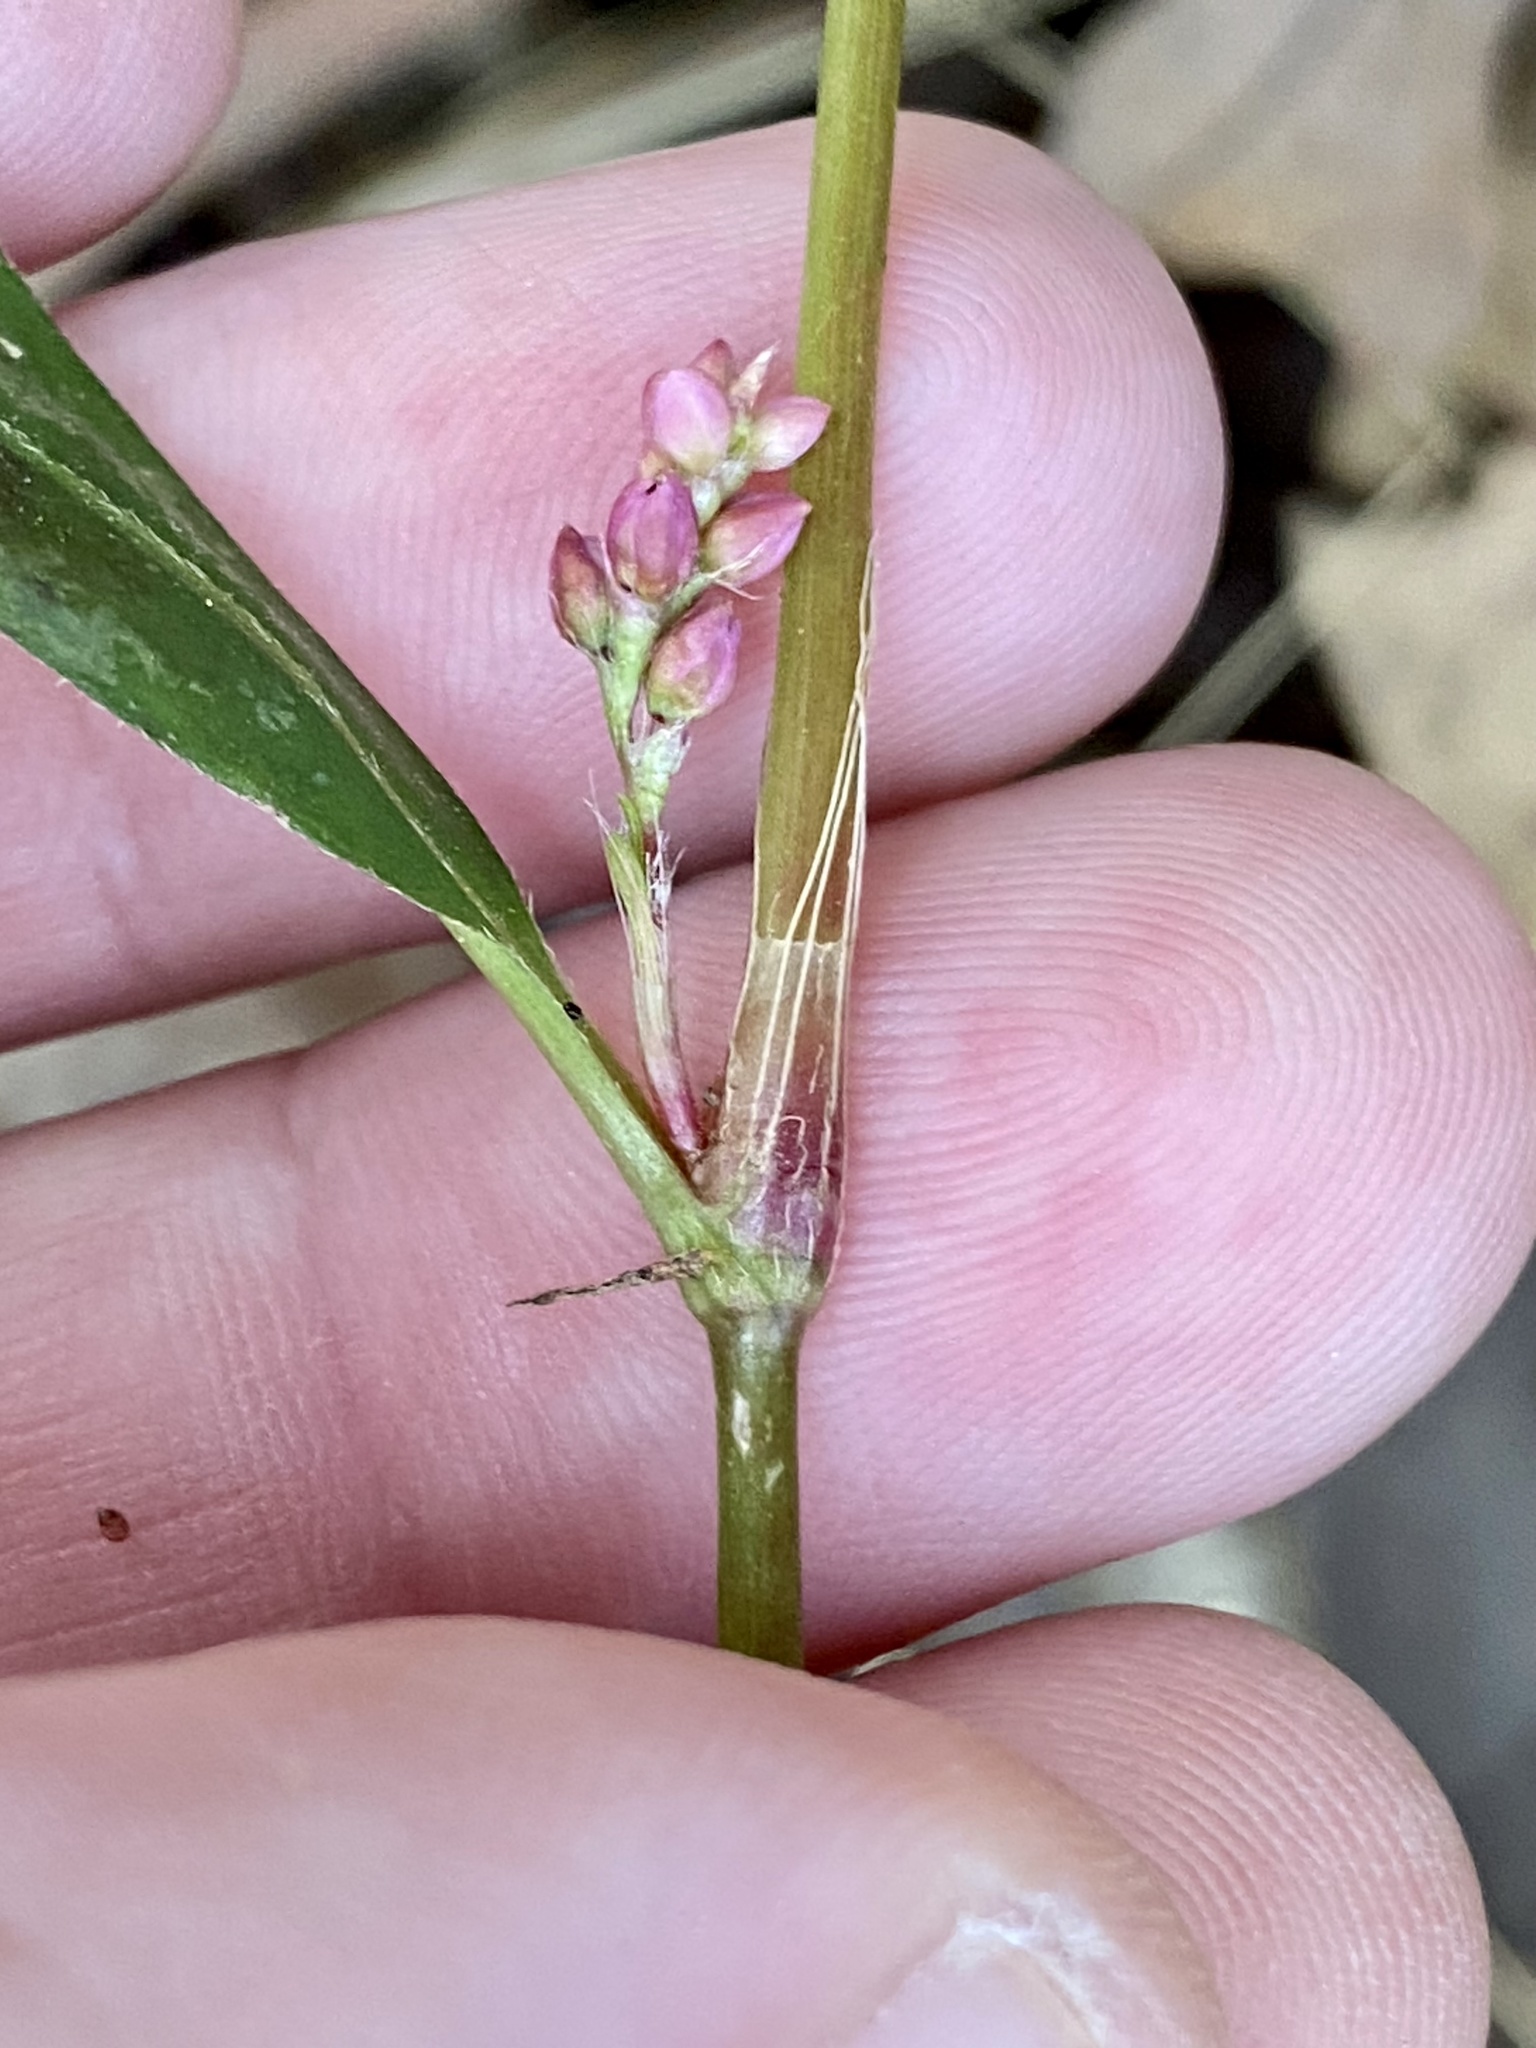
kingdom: Plantae
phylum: Tracheophyta
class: Magnoliopsida
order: Caryophyllales
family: Polygonaceae
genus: Persicaria
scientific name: Persicaria longiseta
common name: Bristly lady's-thumb
